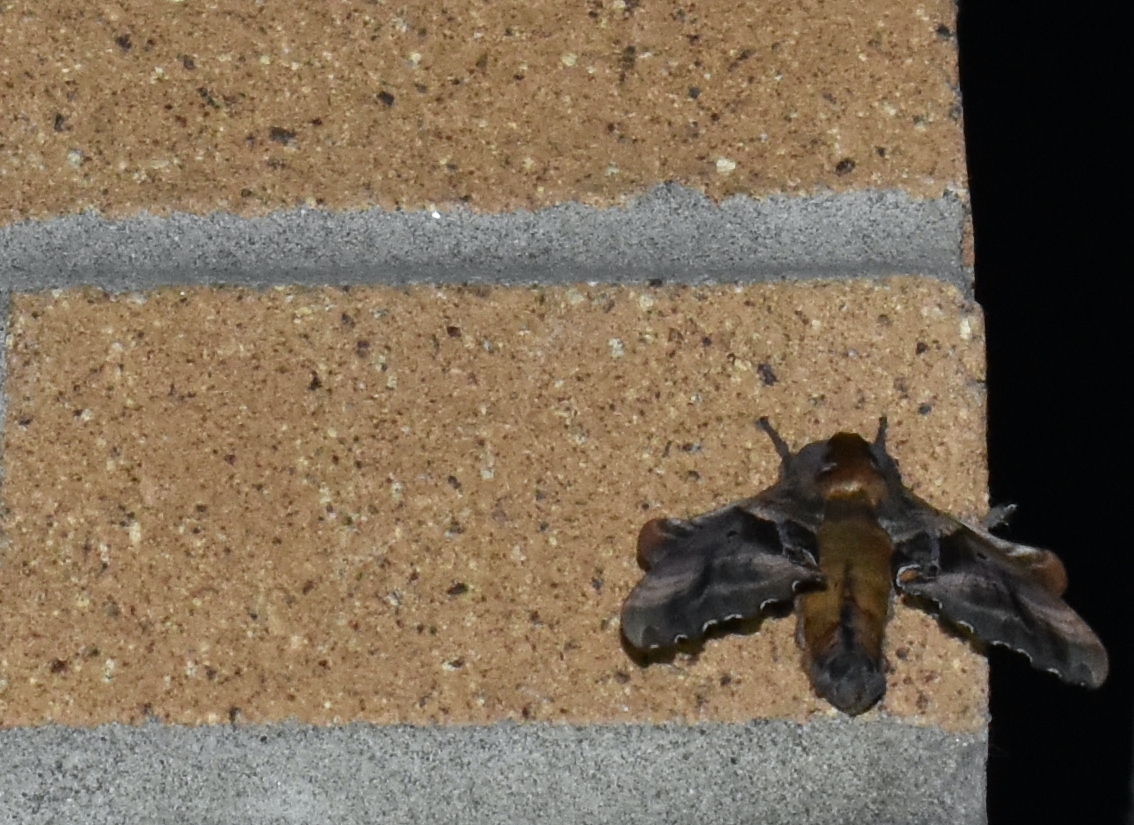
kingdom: Animalia
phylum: Arthropoda
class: Insecta
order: Lepidoptera
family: Sphingidae
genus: Paonias
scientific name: Paonias excaecata
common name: Blind-eyed sphinx
